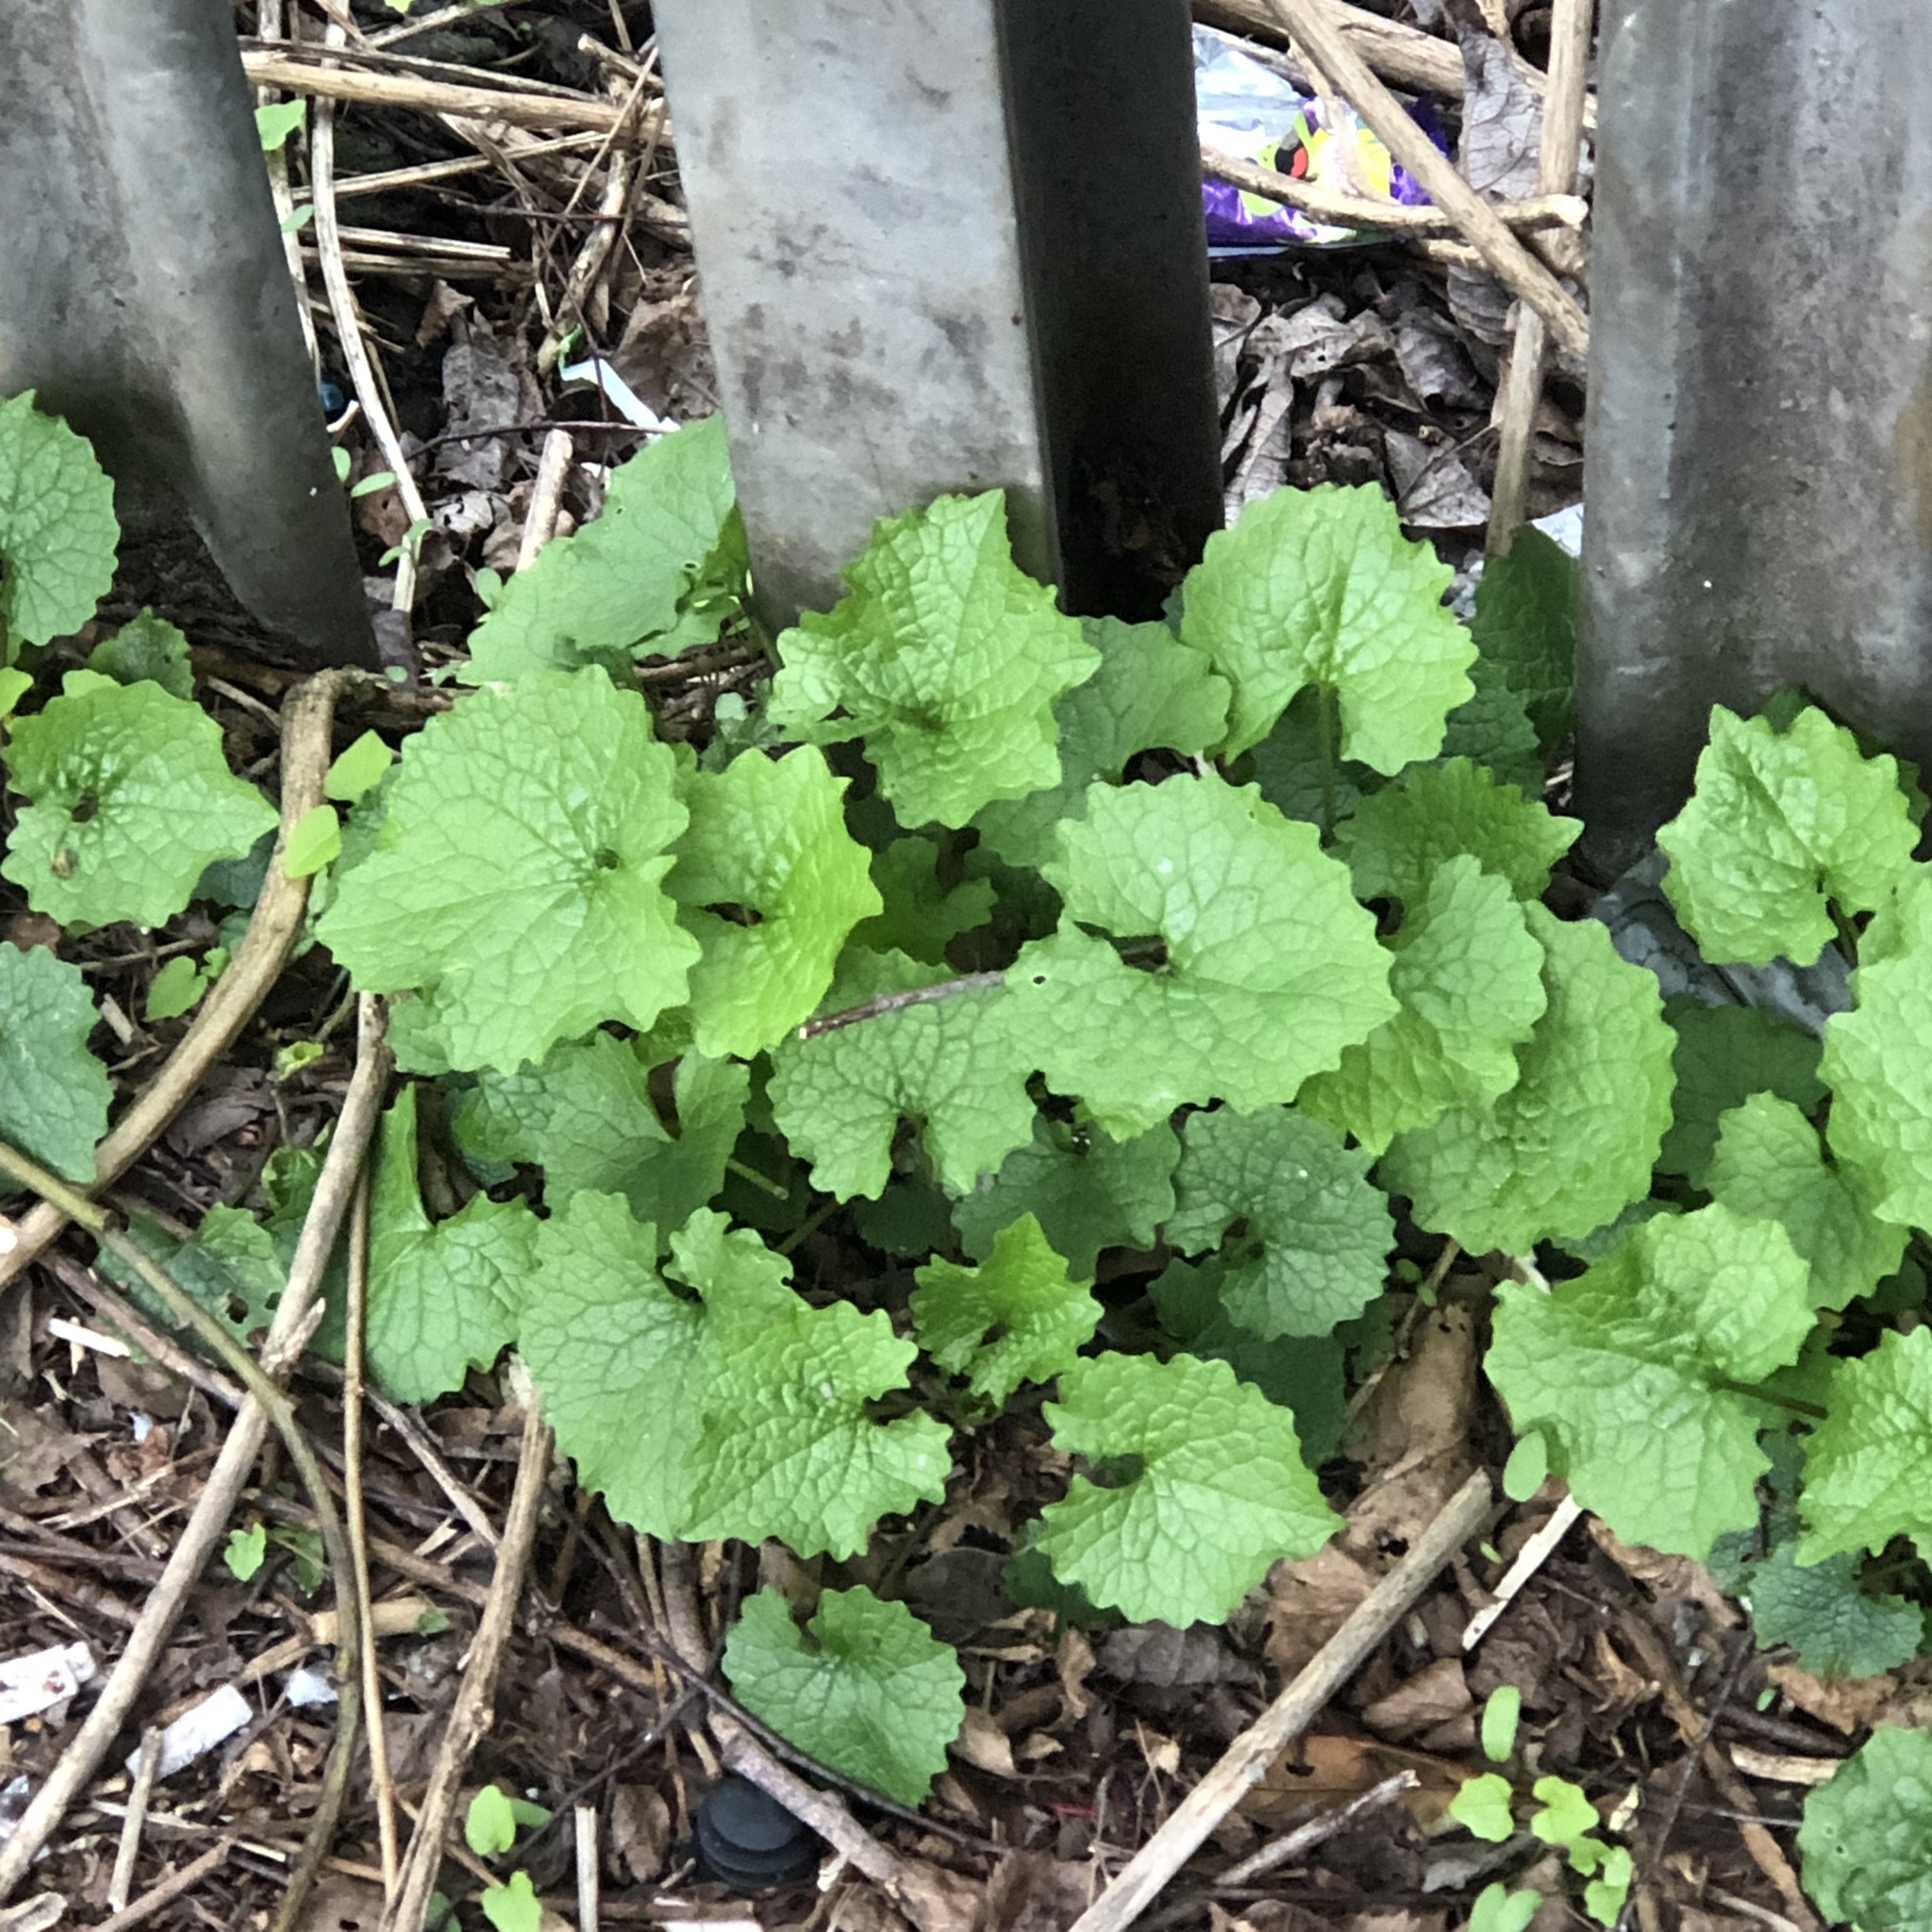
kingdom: Plantae
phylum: Tracheophyta
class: Magnoliopsida
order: Brassicales
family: Brassicaceae
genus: Alliaria
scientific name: Alliaria petiolata
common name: Garlic mustard
